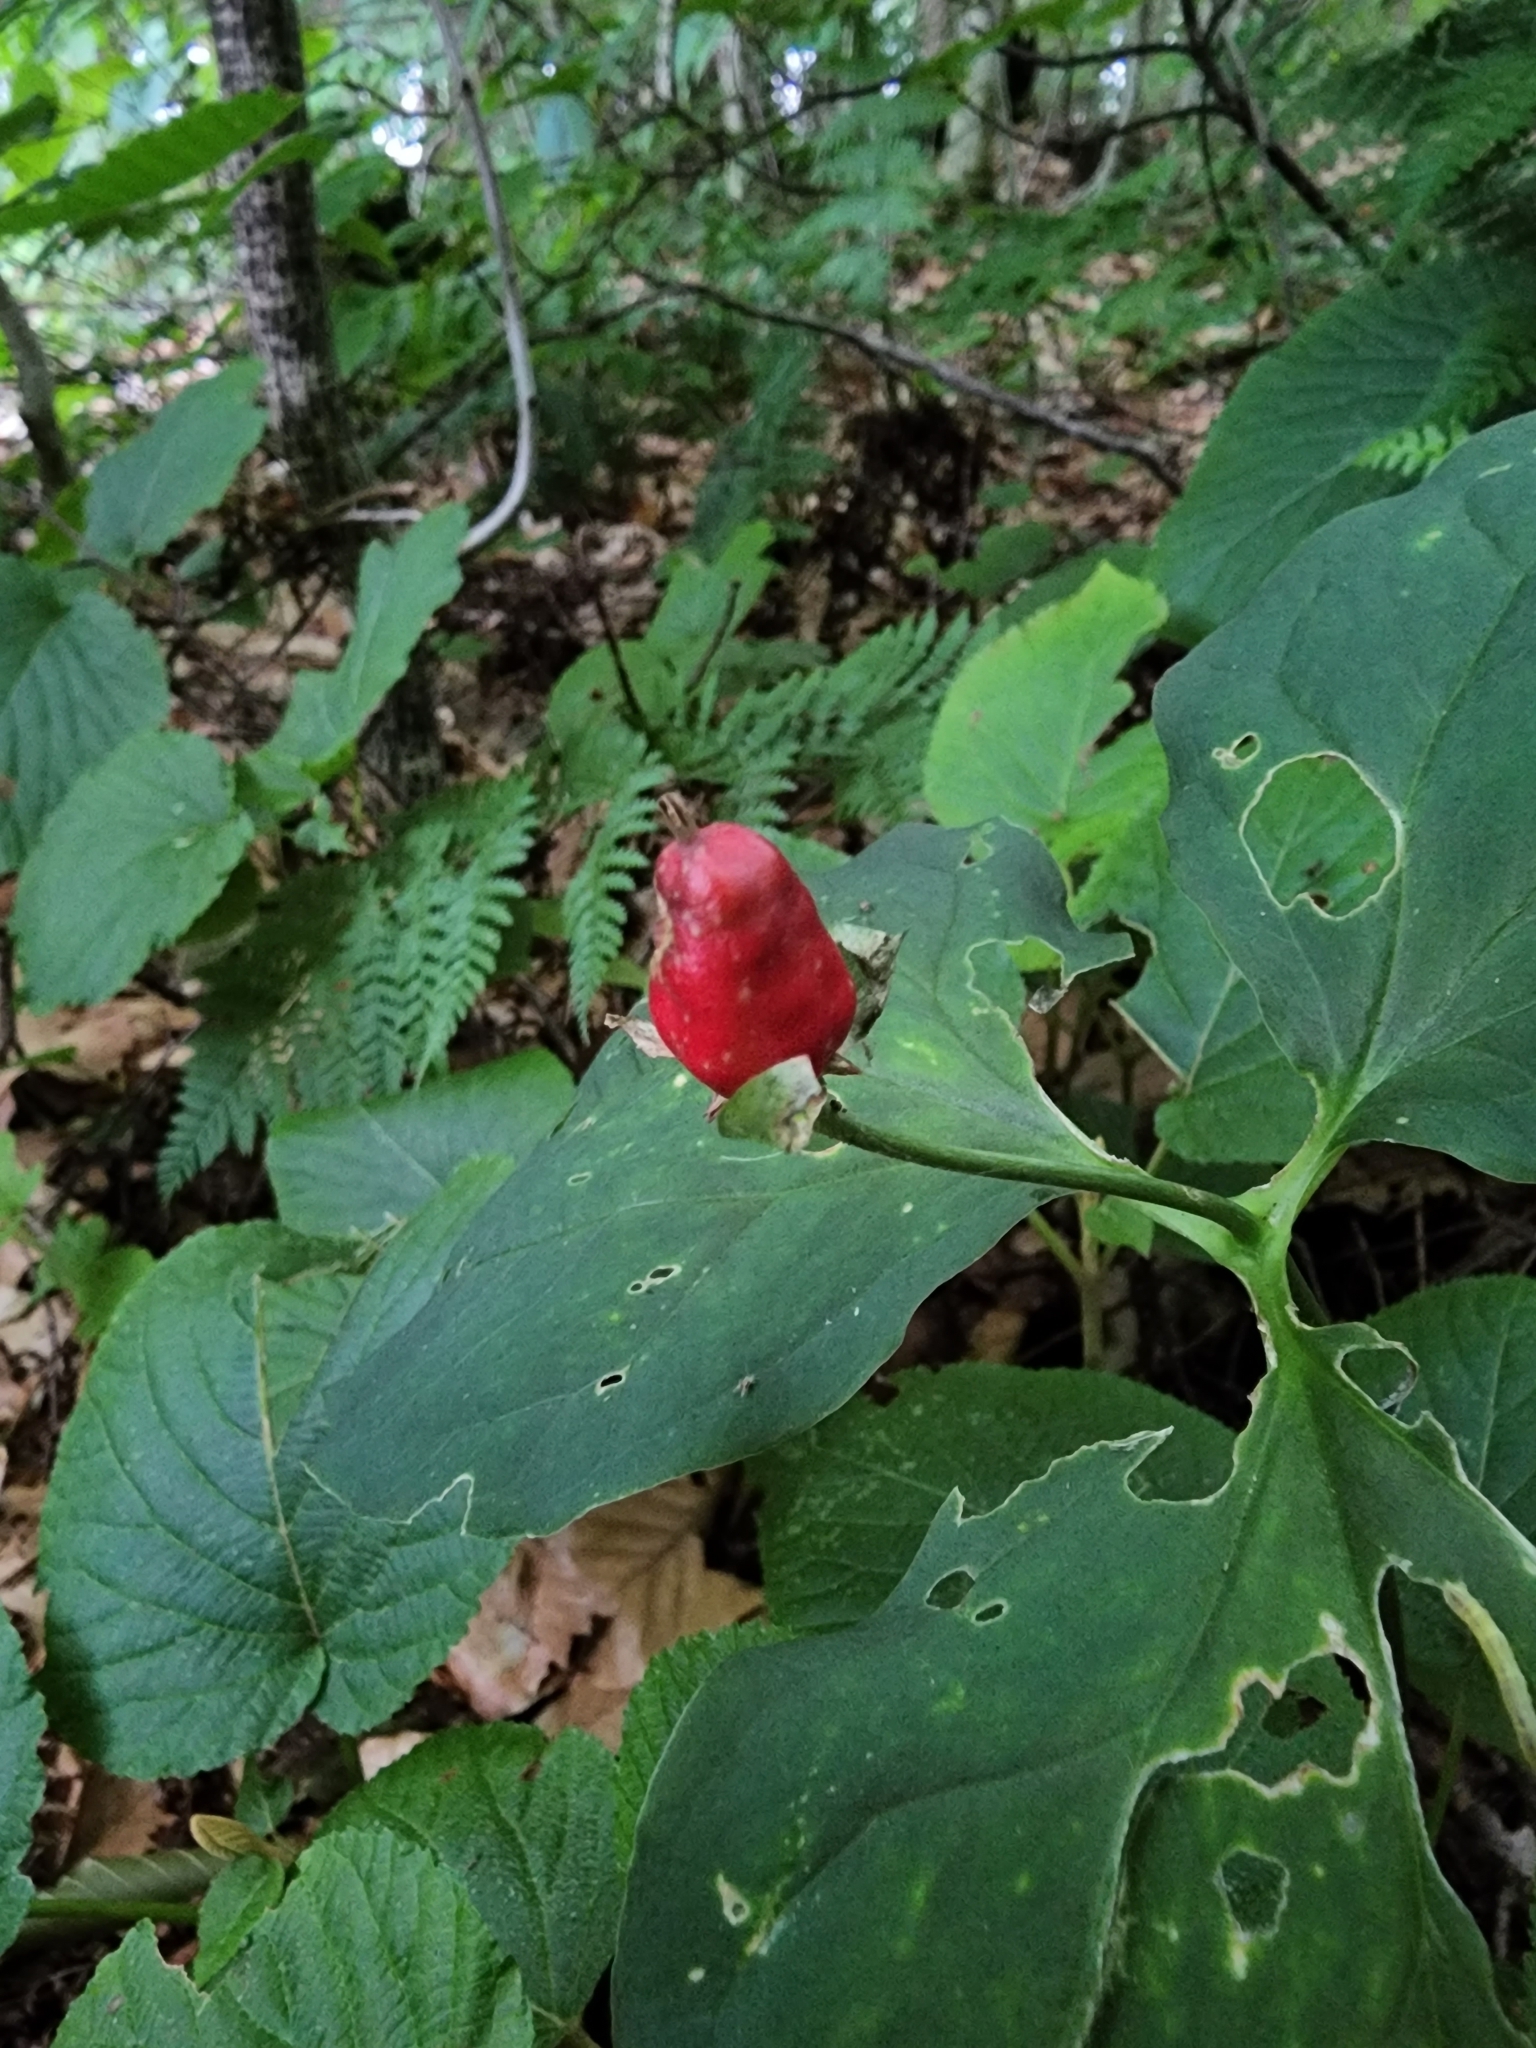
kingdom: Plantae
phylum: Tracheophyta
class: Liliopsida
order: Liliales
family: Melanthiaceae
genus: Trillium
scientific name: Trillium undulatum
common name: Paint trillium
